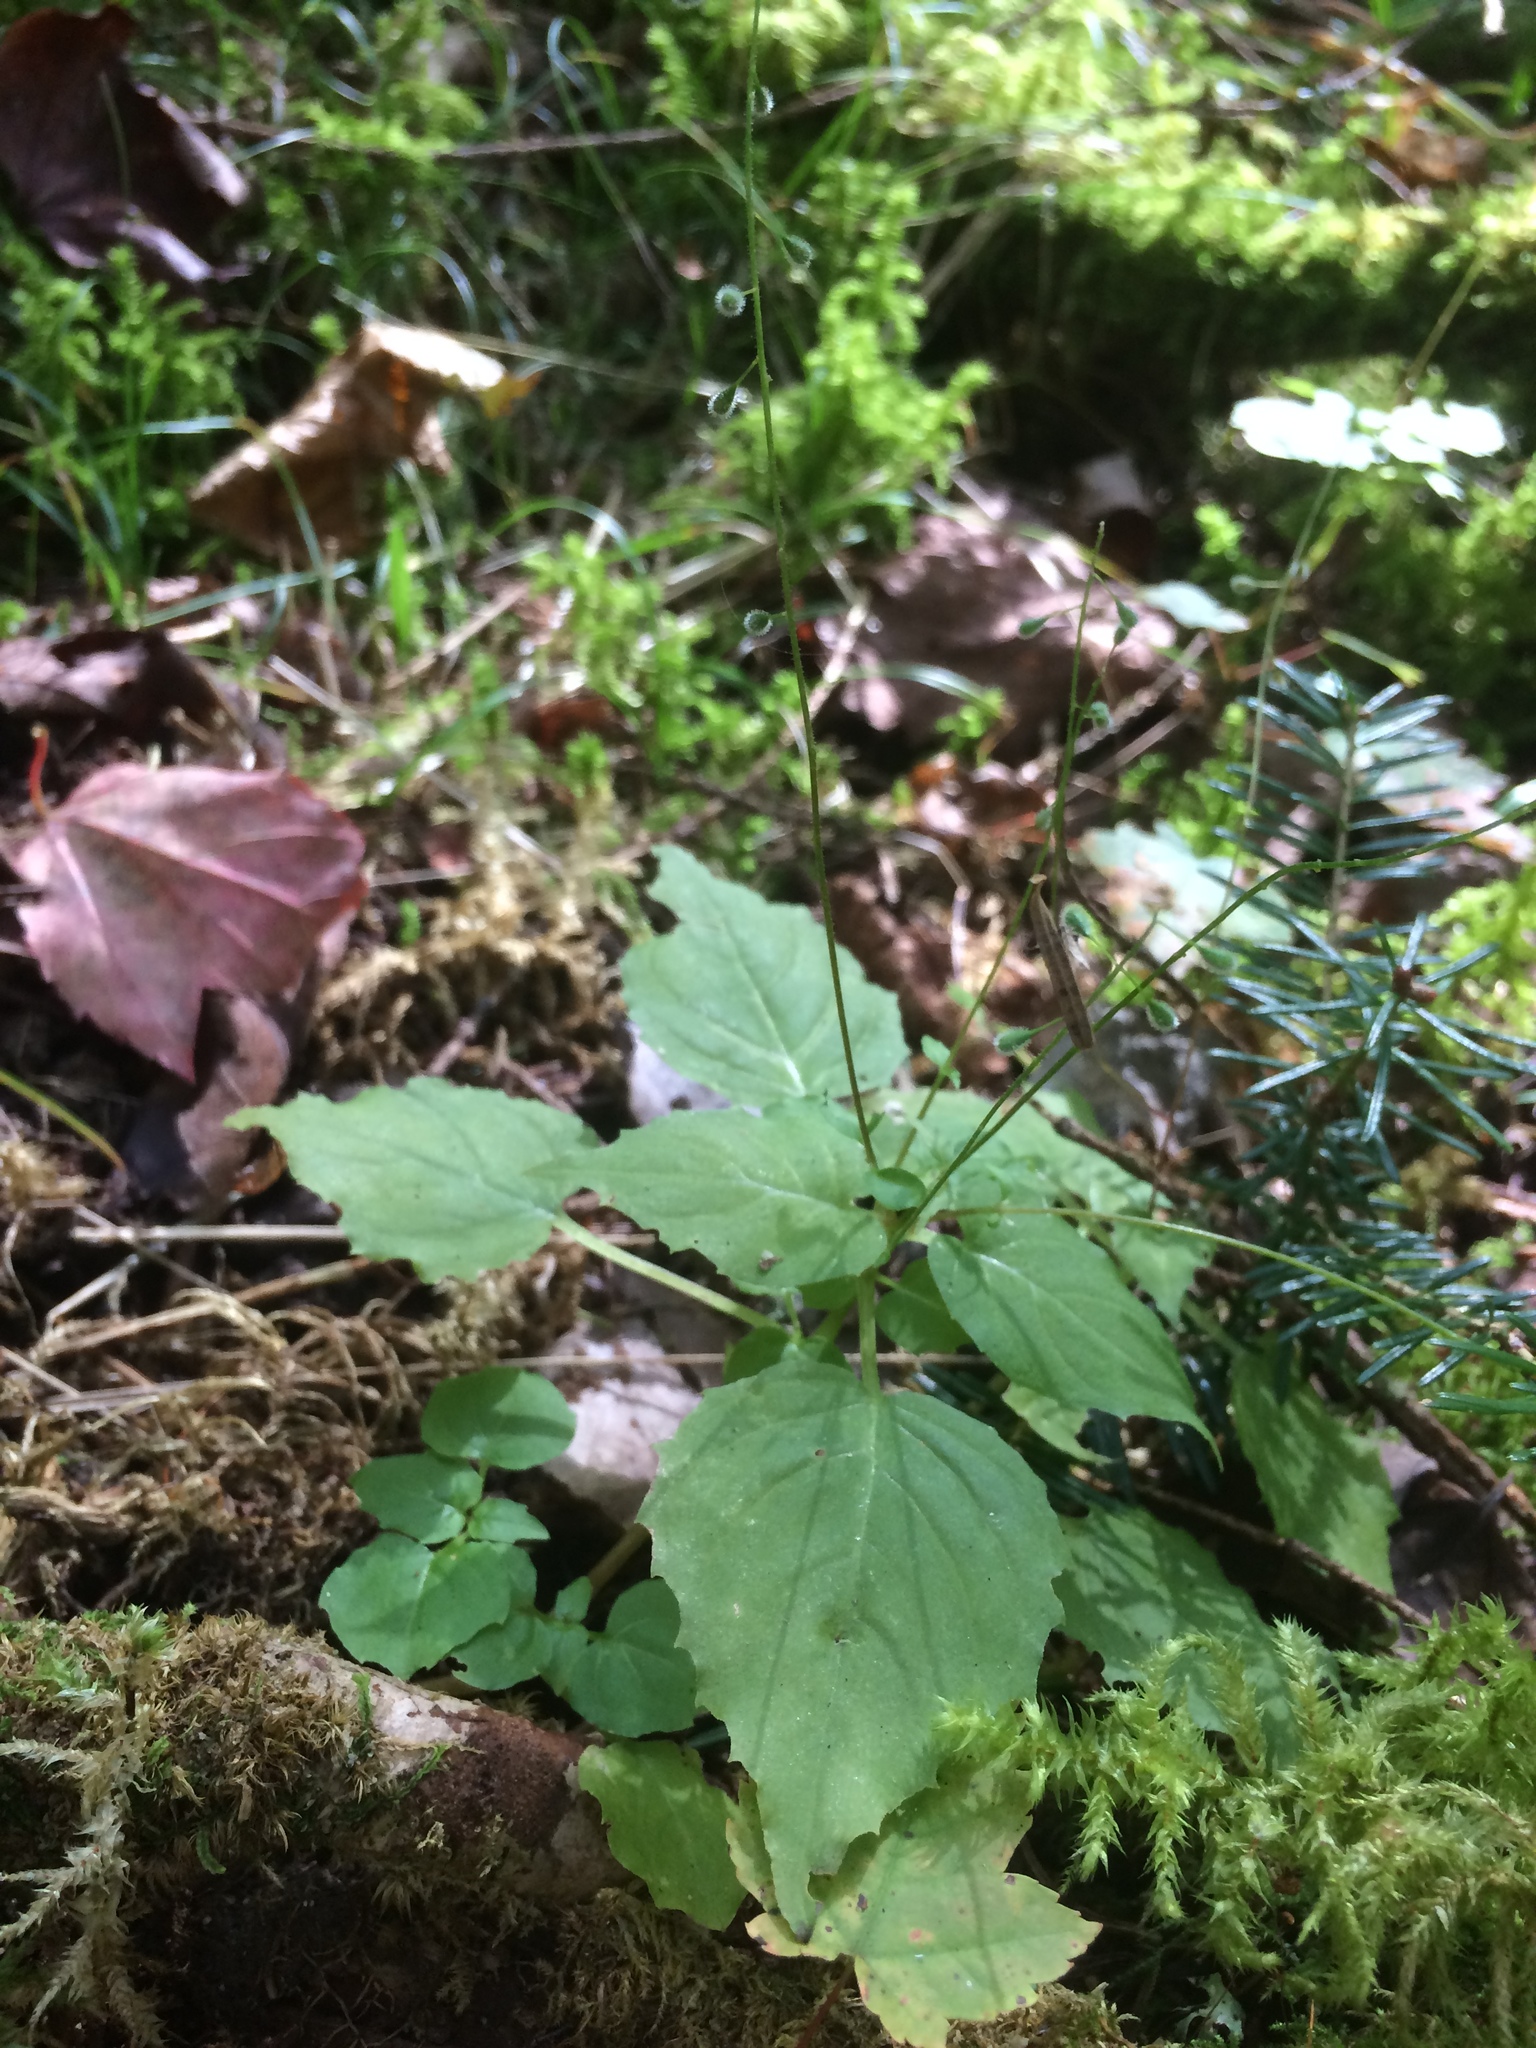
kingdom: Plantae
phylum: Tracheophyta
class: Magnoliopsida
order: Myrtales
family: Onagraceae
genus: Circaea
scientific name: Circaea alpina
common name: Alpine enchanter's-nightshade
